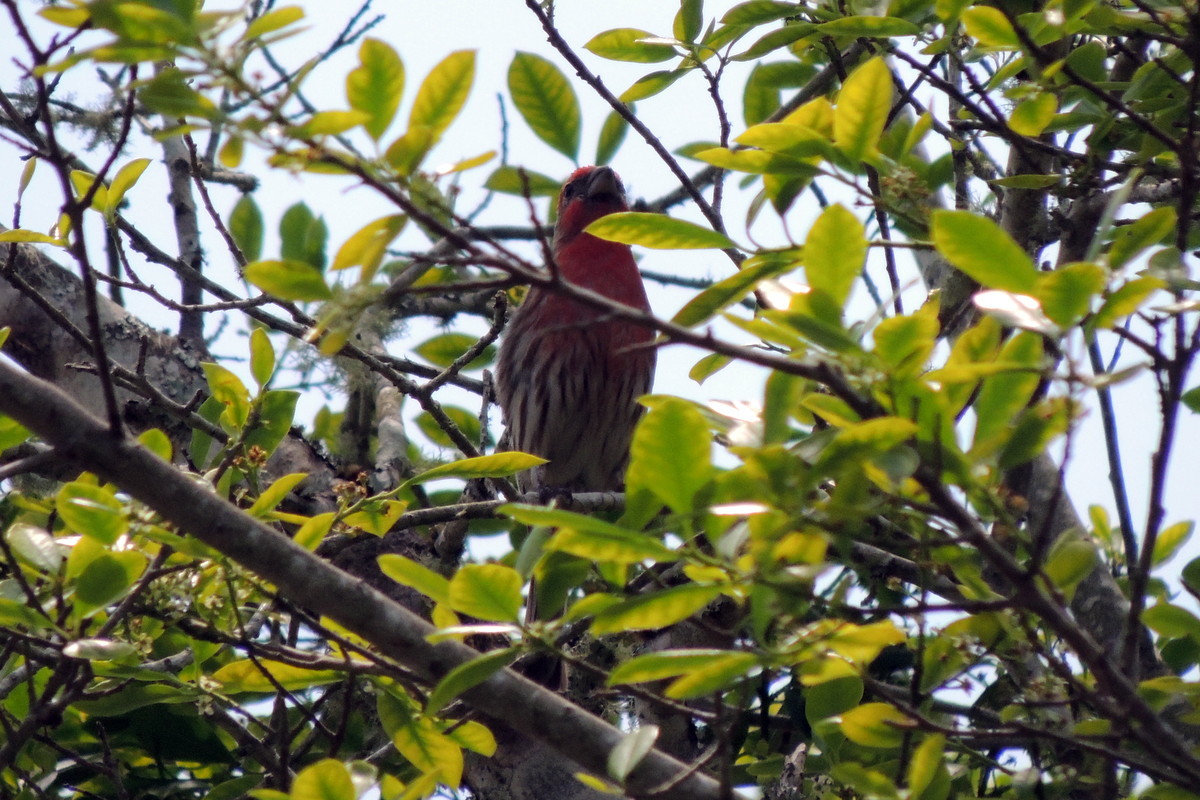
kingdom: Animalia
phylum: Chordata
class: Aves
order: Passeriformes
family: Fringillidae
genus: Haemorhous
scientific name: Haemorhous mexicanus
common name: House finch
